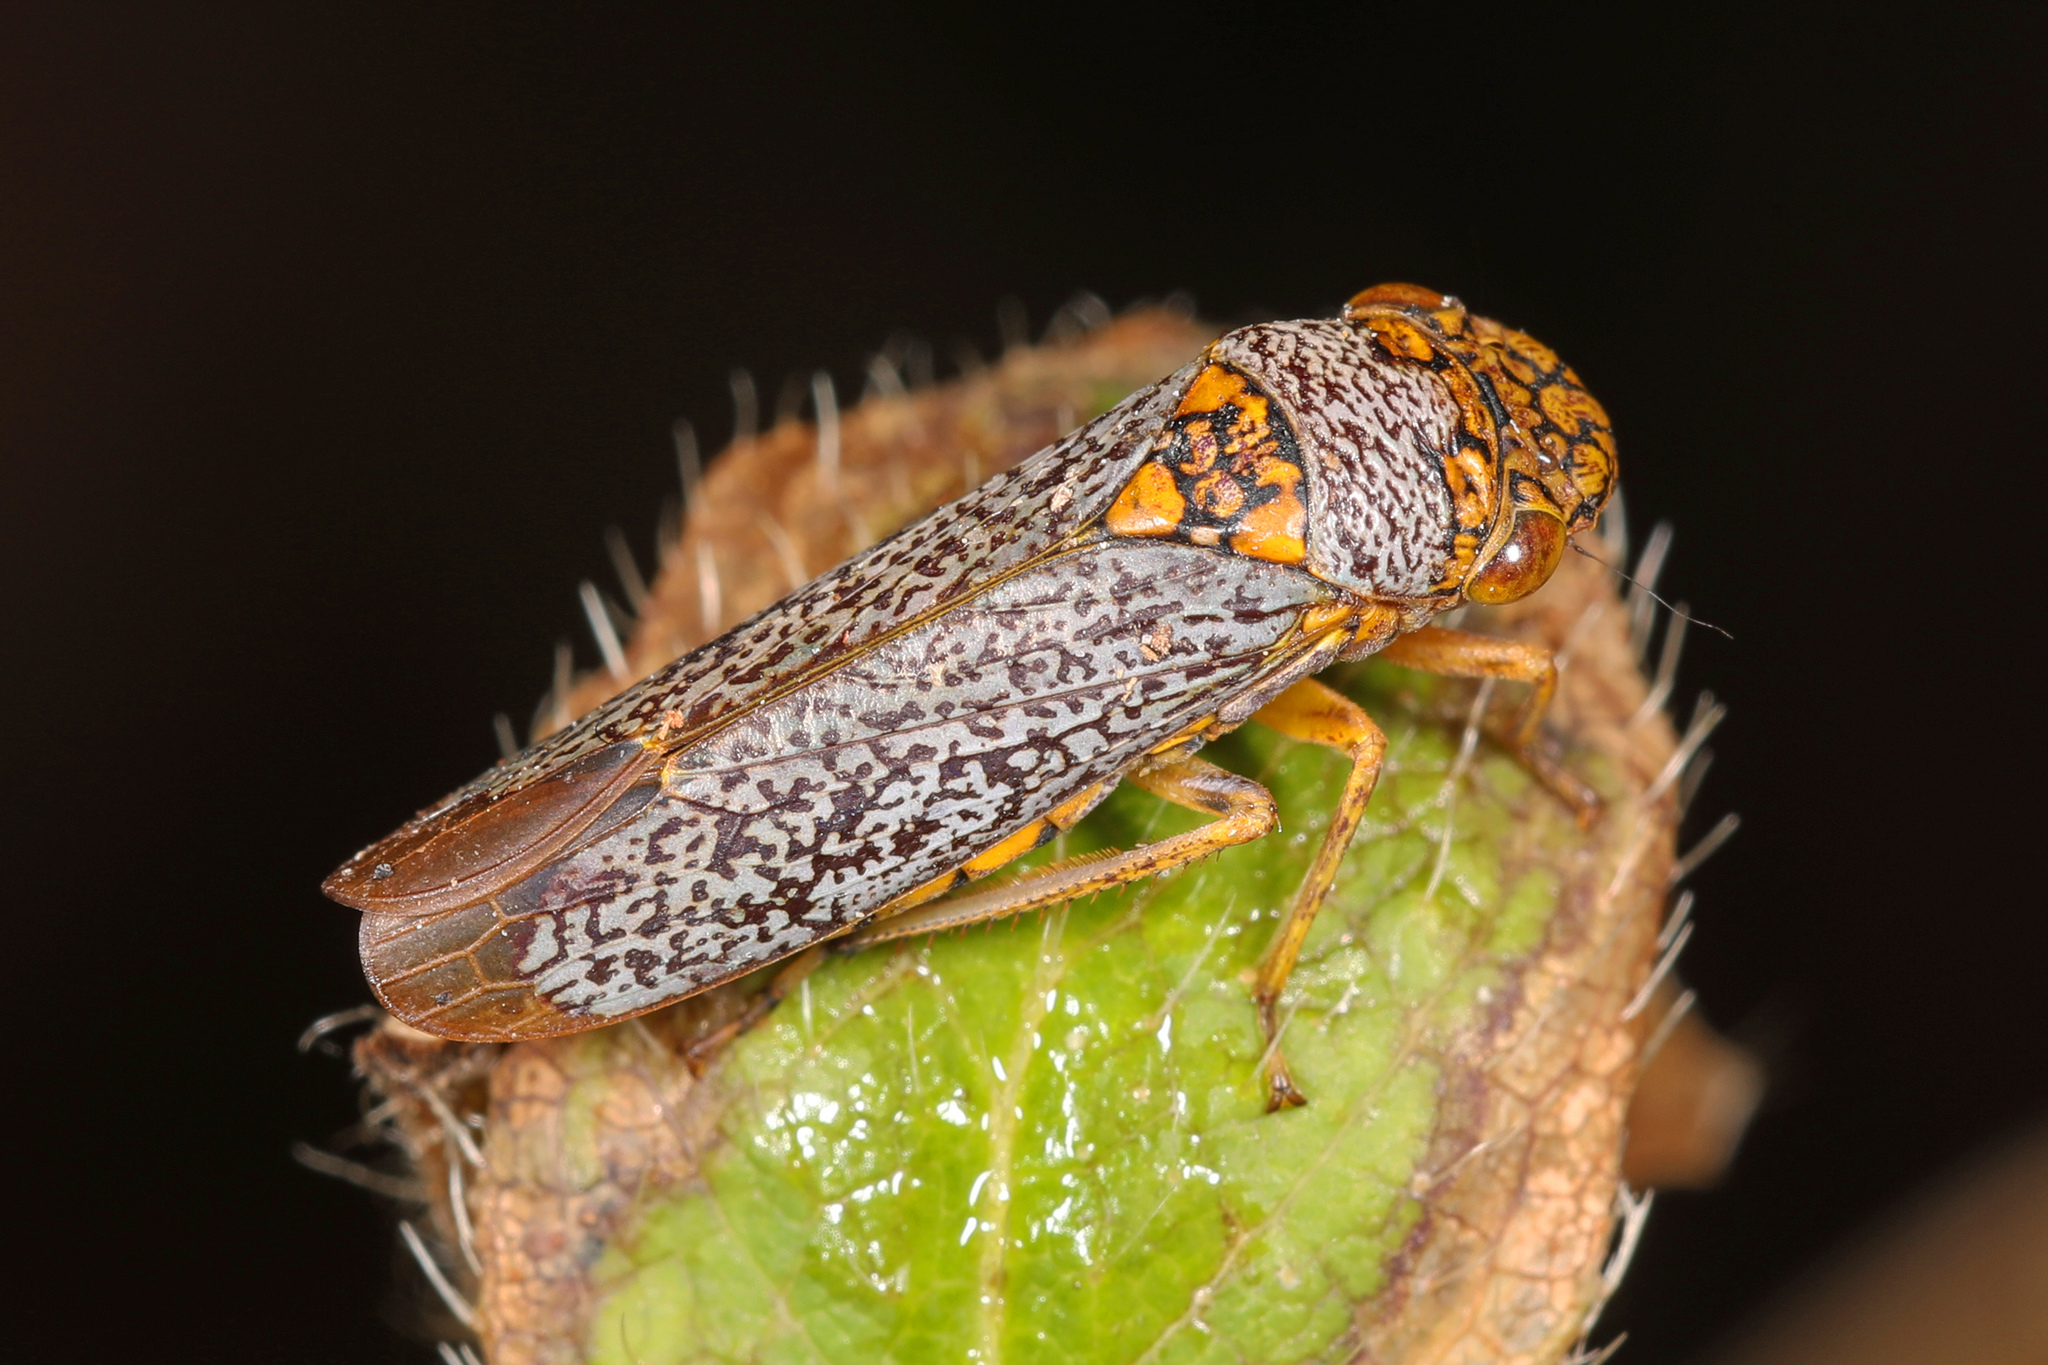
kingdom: Animalia
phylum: Arthropoda
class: Insecta
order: Hemiptera
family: Cicadellidae
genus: Oncometopia
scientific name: Oncometopia orbona
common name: Broad-headed sharpshooter
